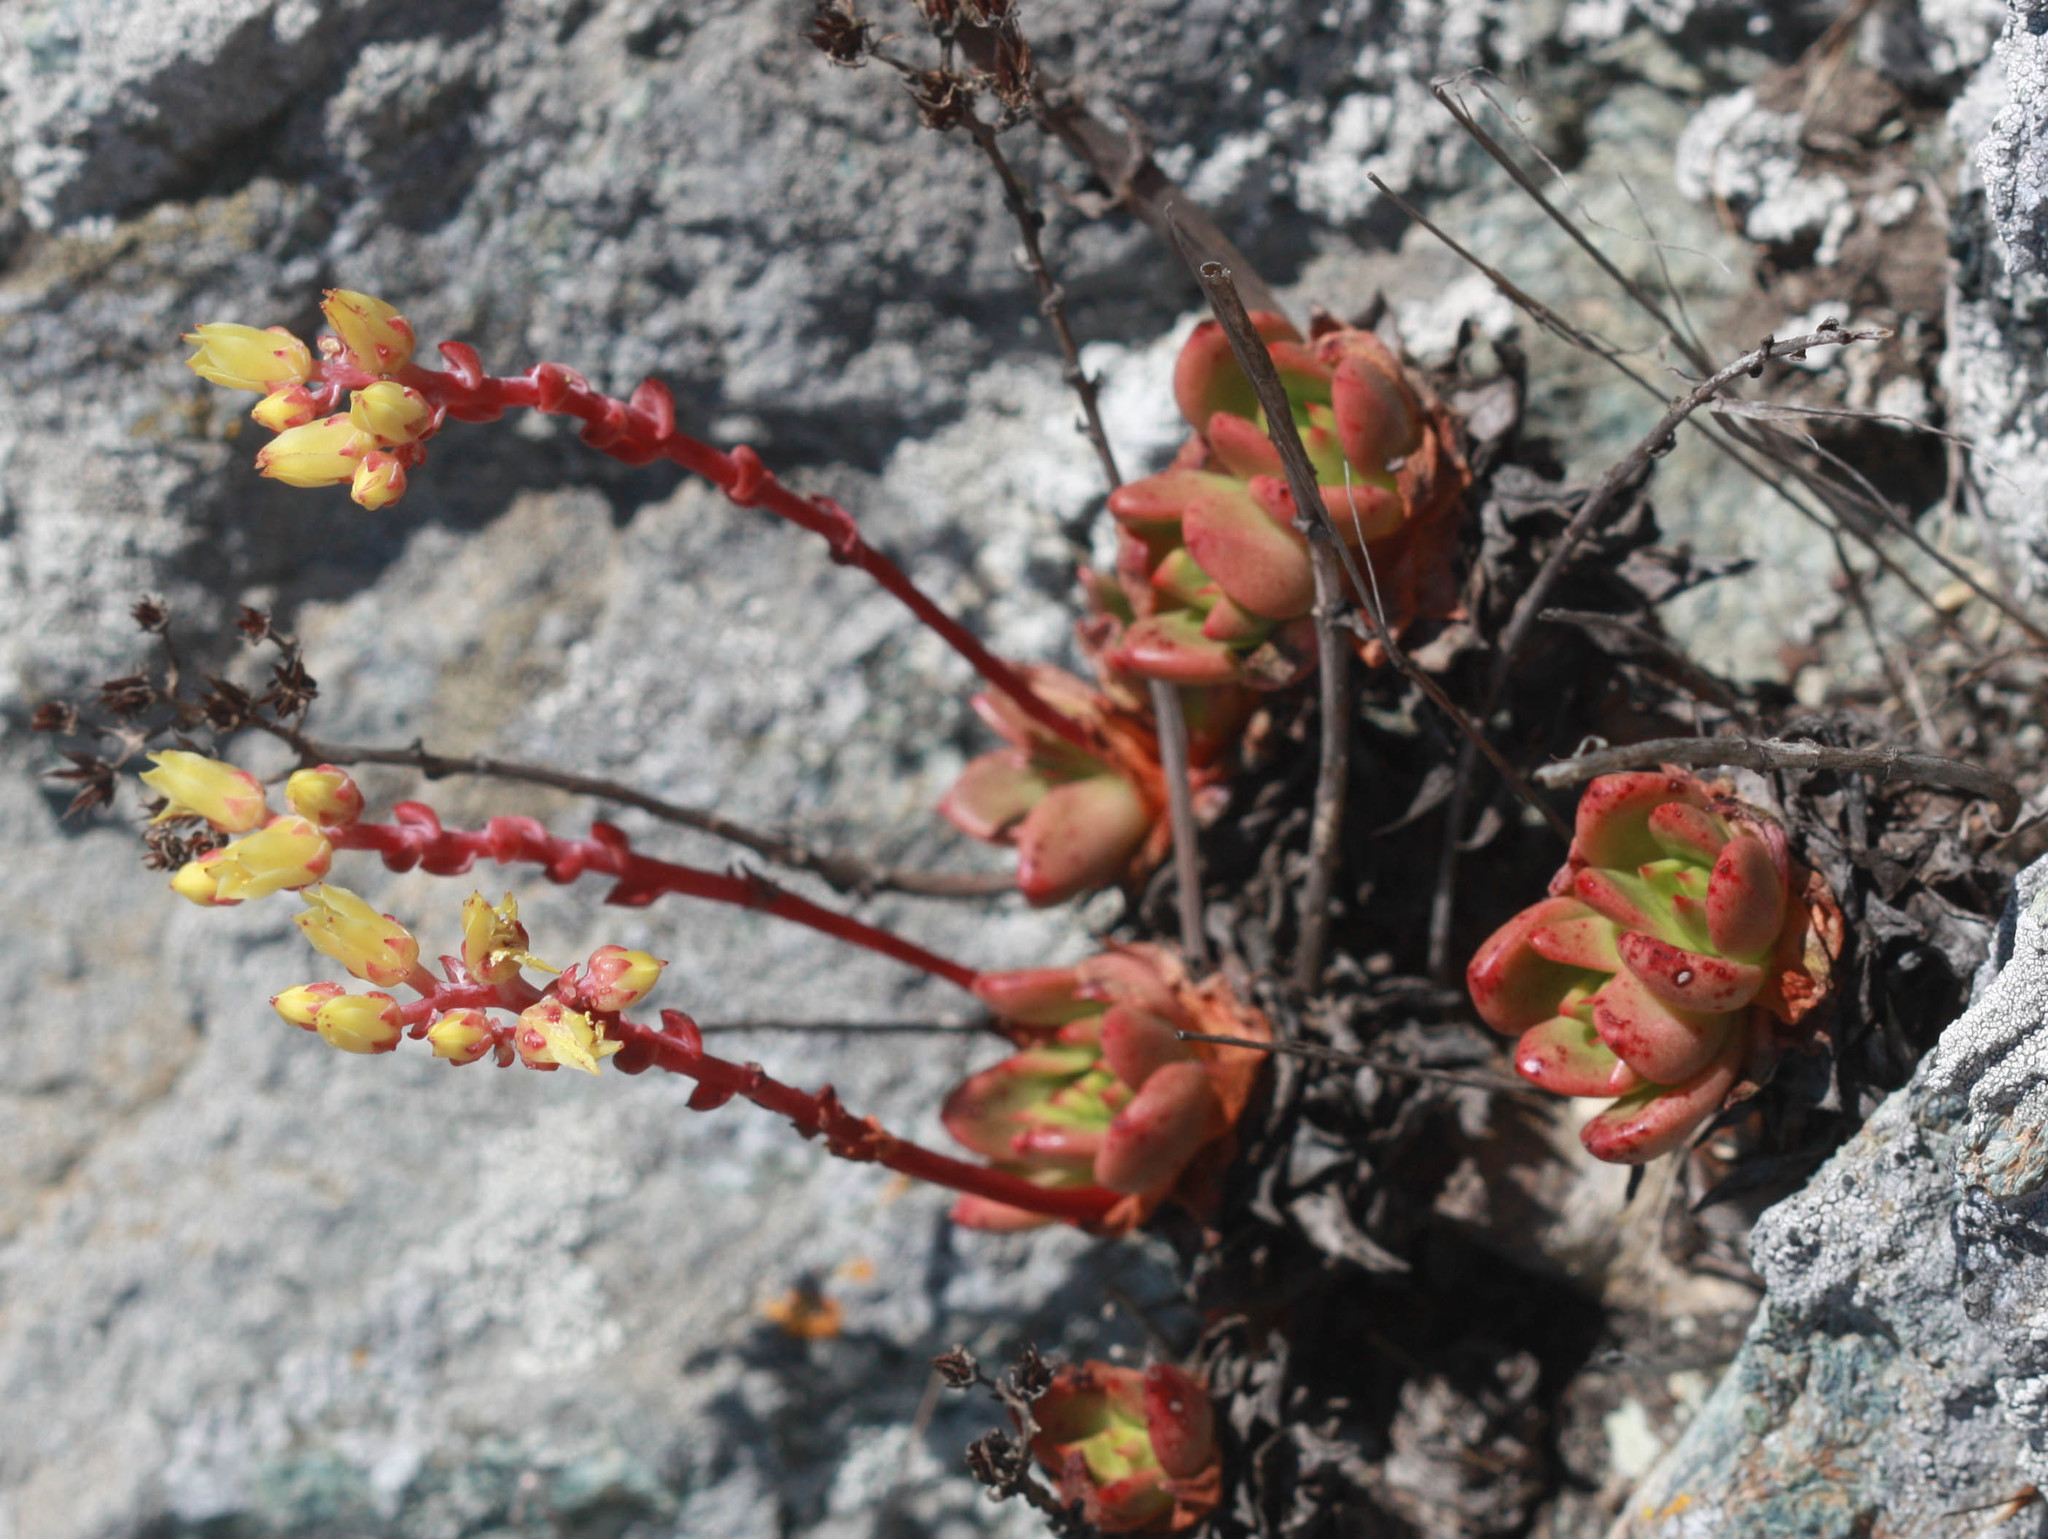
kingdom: Plantae
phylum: Tracheophyta
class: Magnoliopsida
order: Saxifragales
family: Crassulaceae
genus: Dudleya
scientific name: Dudleya farinosa
